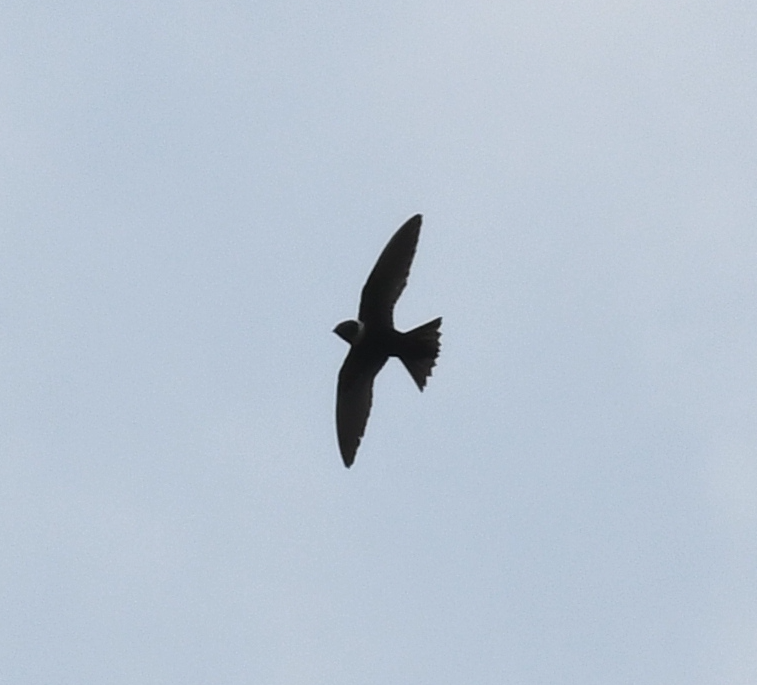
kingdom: Animalia
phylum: Chordata
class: Aves
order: Apodiformes
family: Apodidae
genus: Streptoprocne
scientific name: Streptoprocne zonaris
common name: White-collared swift
